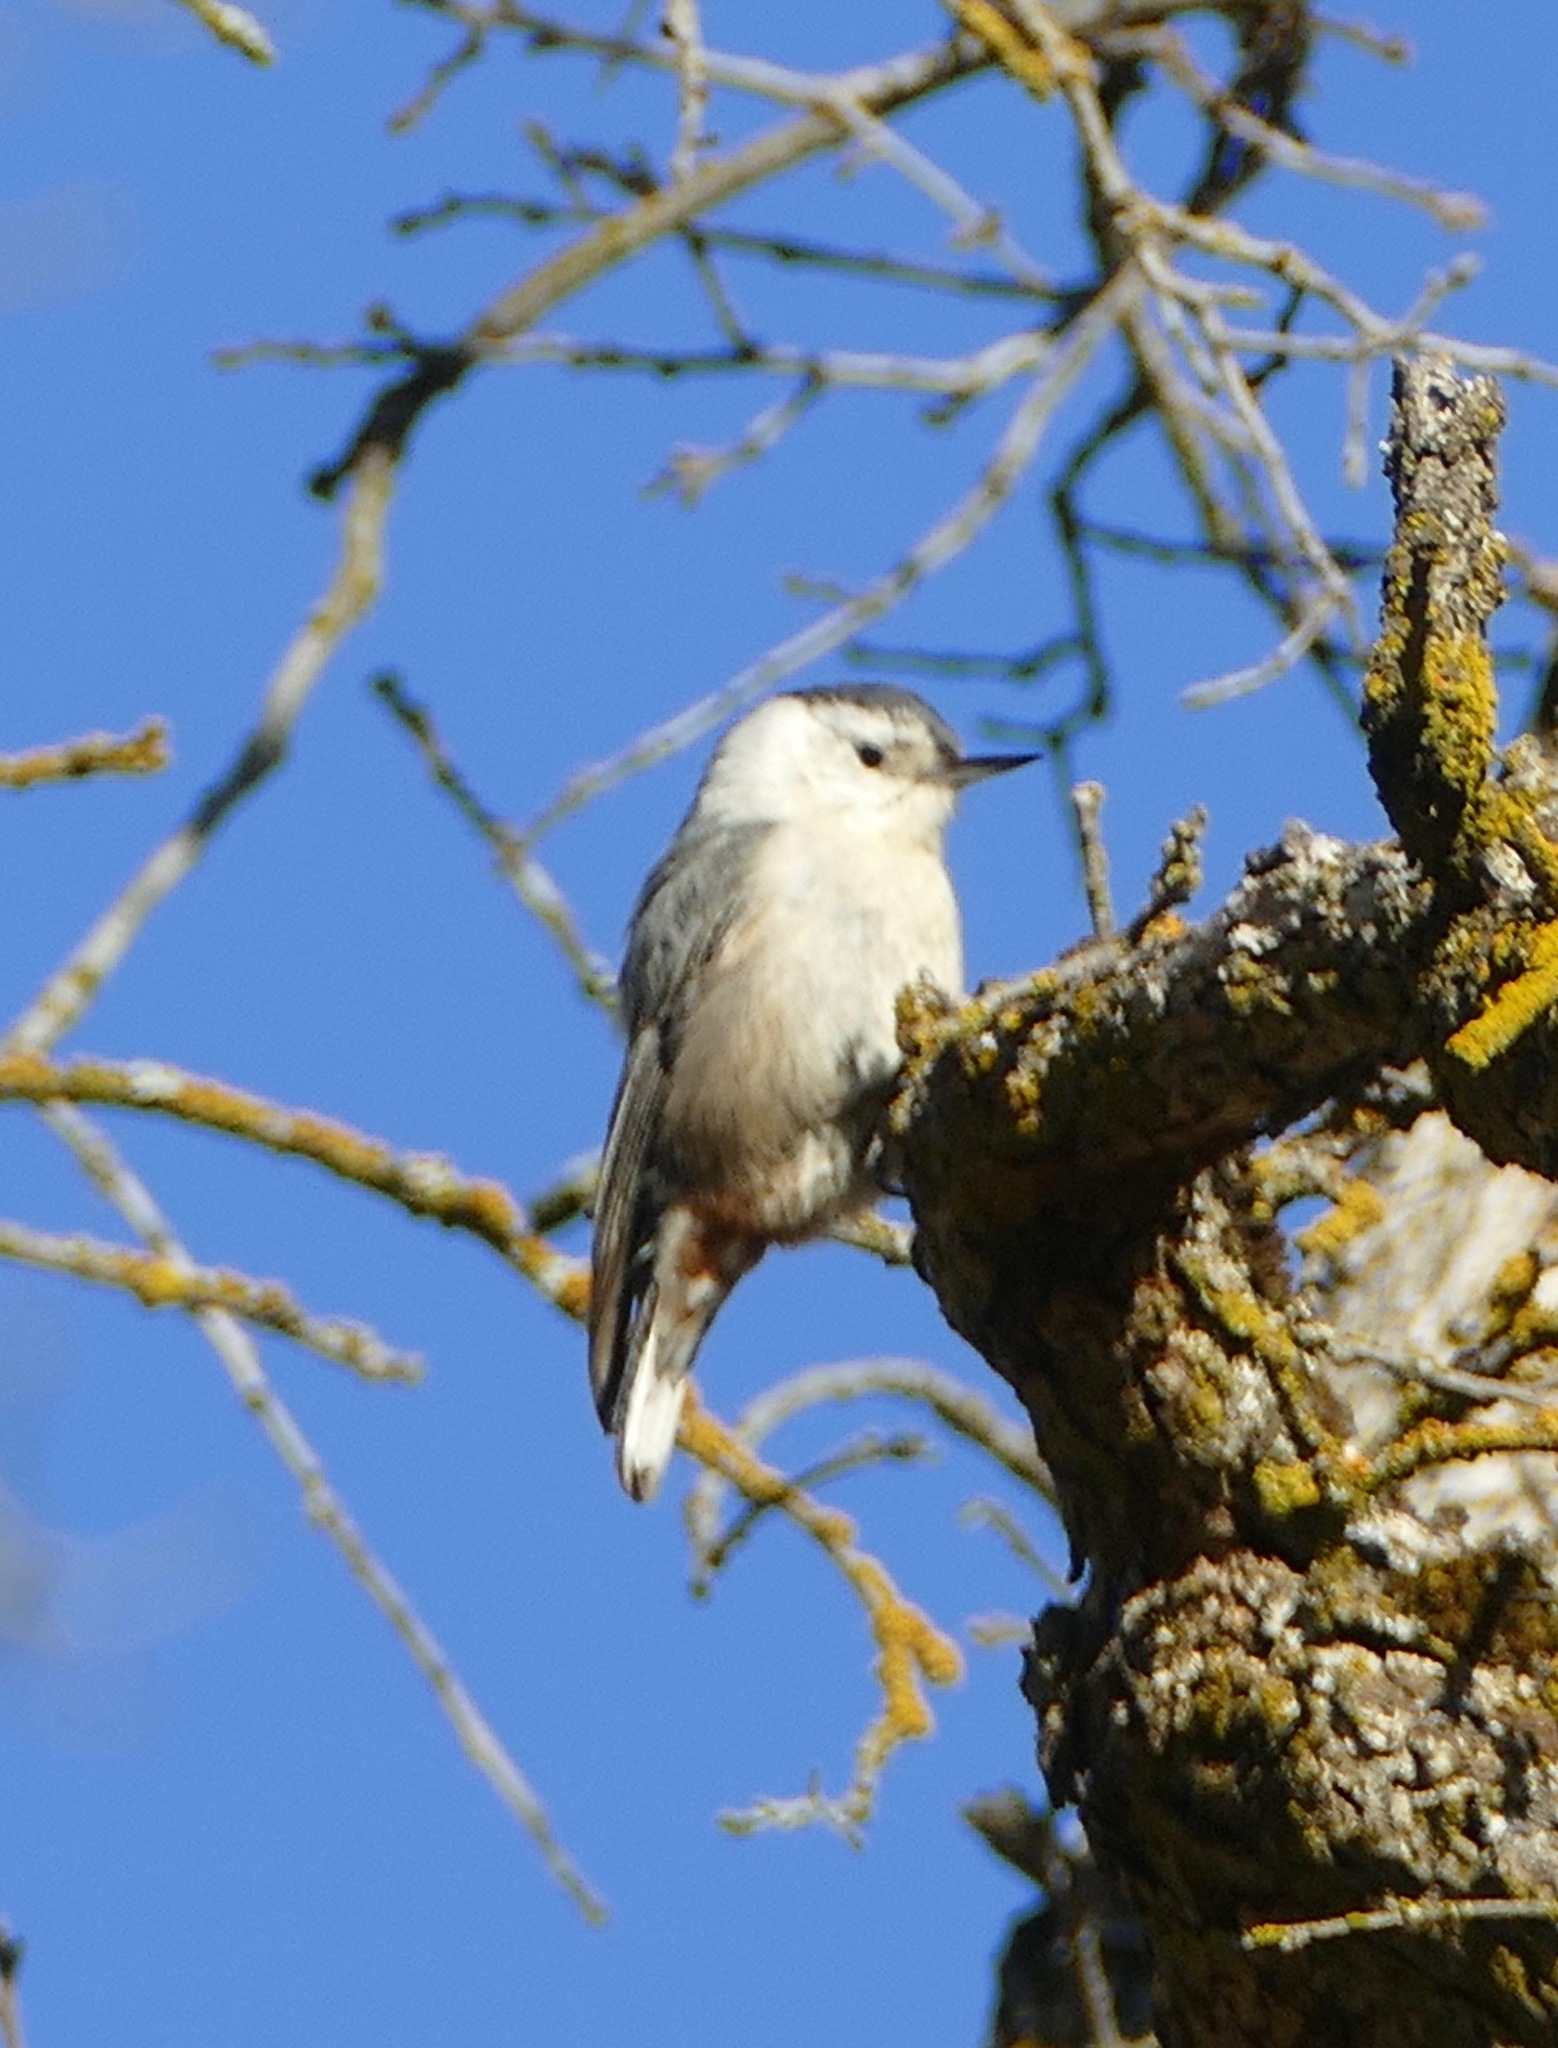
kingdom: Animalia
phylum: Chordata
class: Aves
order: Passeriformes
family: Sittidae
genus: Sitta
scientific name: Sitta carolinensis
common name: White-breasted nuthatch
